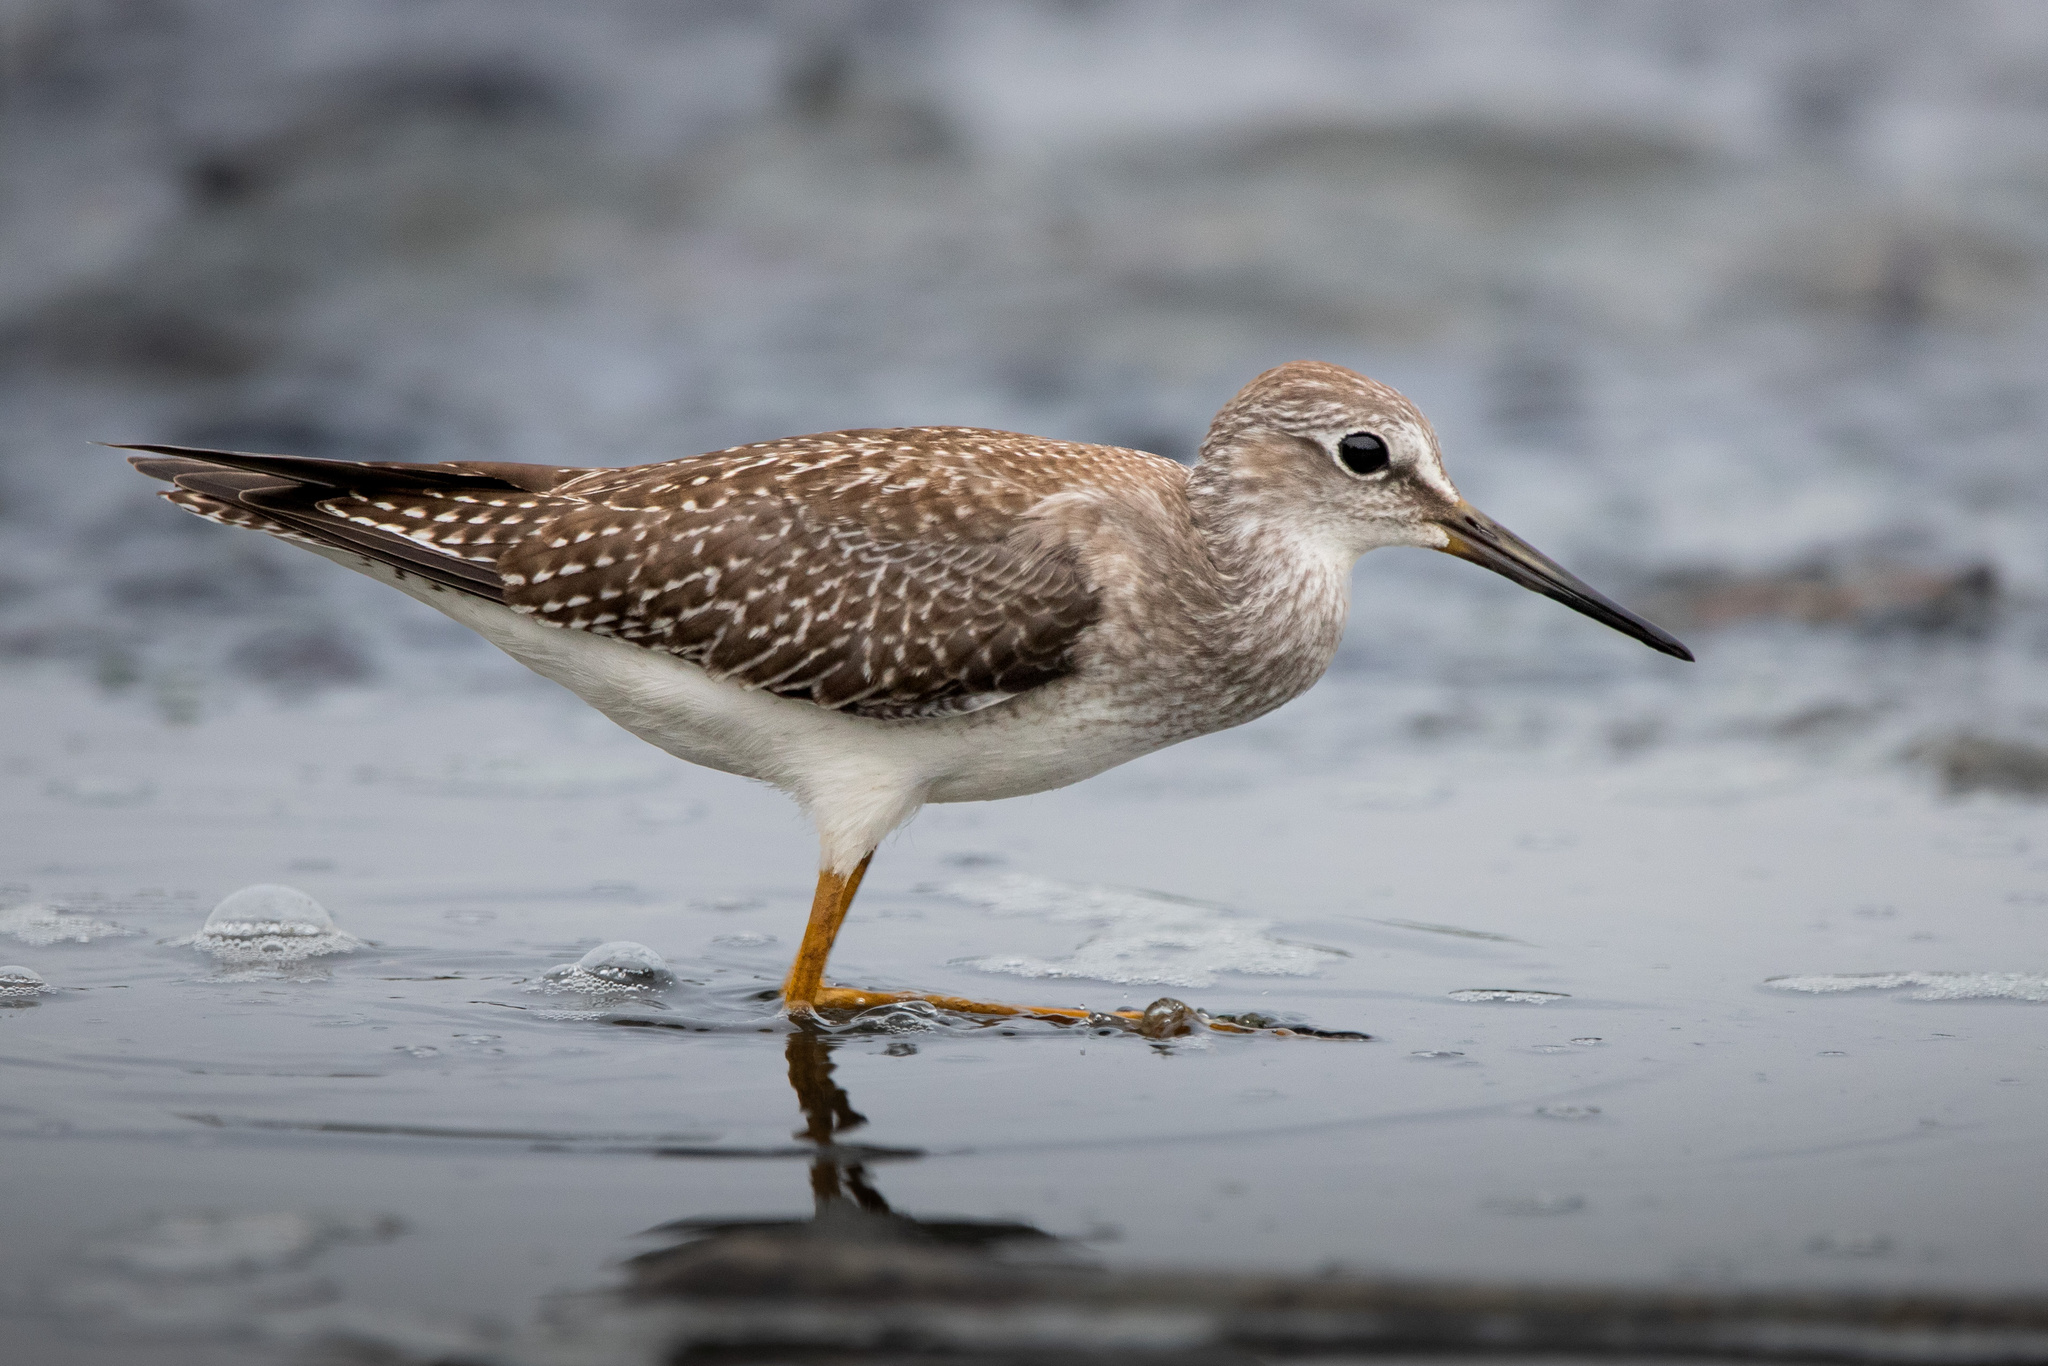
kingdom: Animalia
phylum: Chordata
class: Aves
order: Charadriiformes
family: Scolopacidae
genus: Tringa
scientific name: Tringa flavipes
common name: Lesser yellowlegs
